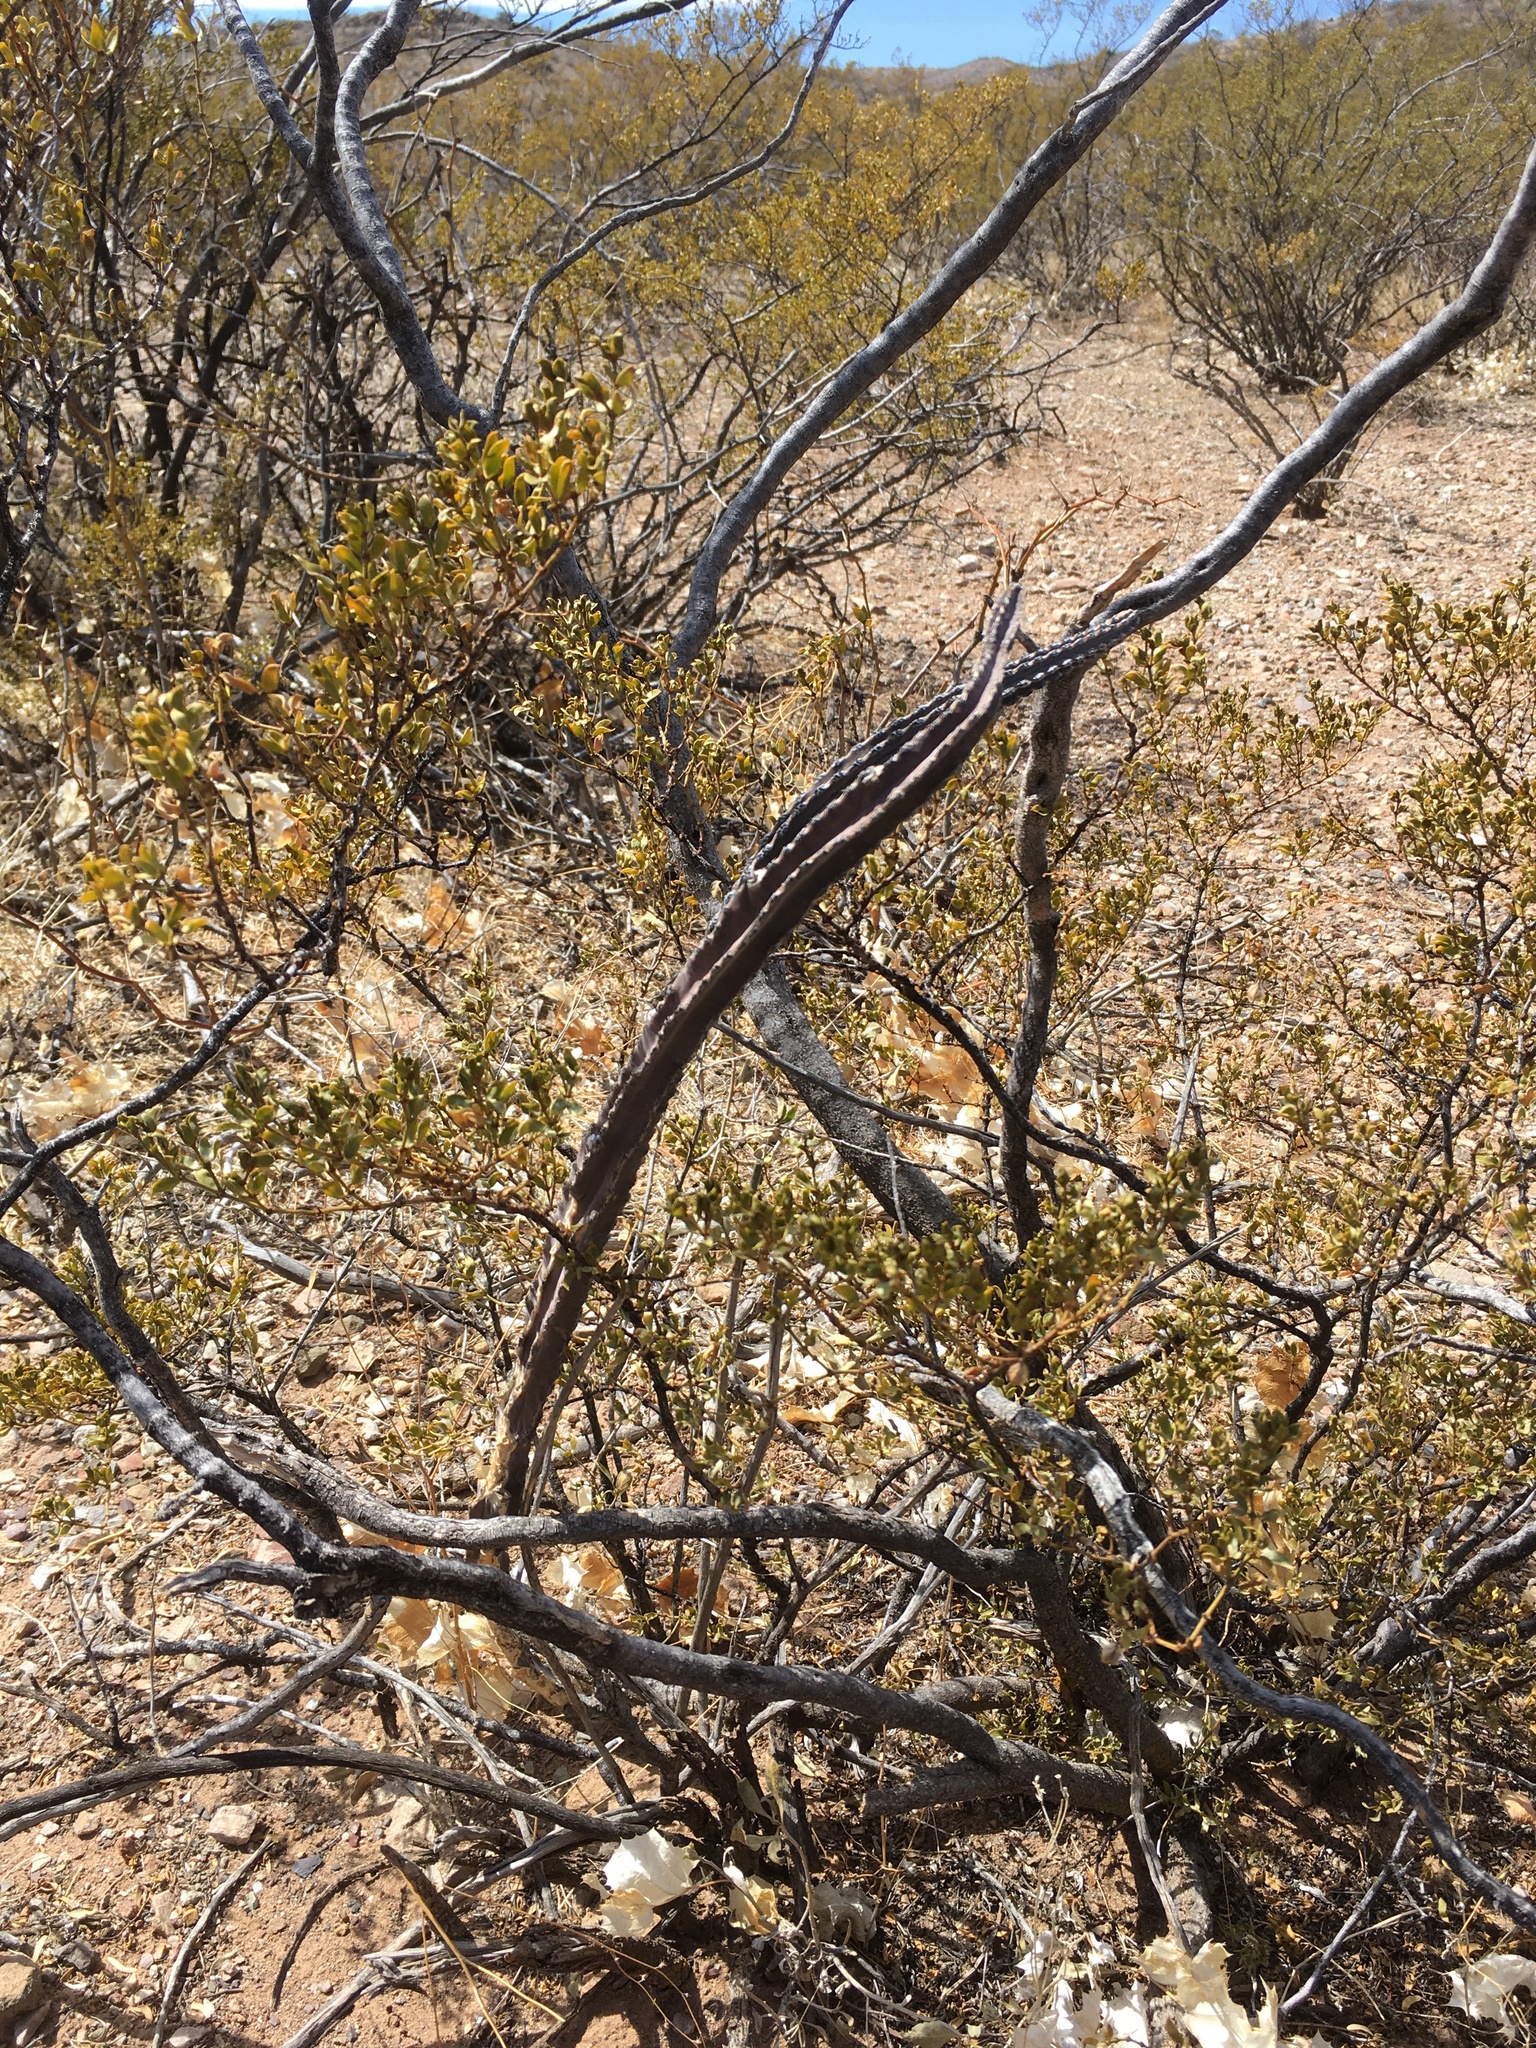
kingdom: Plantae
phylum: Tracheophyta
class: Magnoliopsida
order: Caryophyllales
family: Cactaceae
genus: Peniocereus
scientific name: Peniocereus greggii
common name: Desert night-blooming cereus
